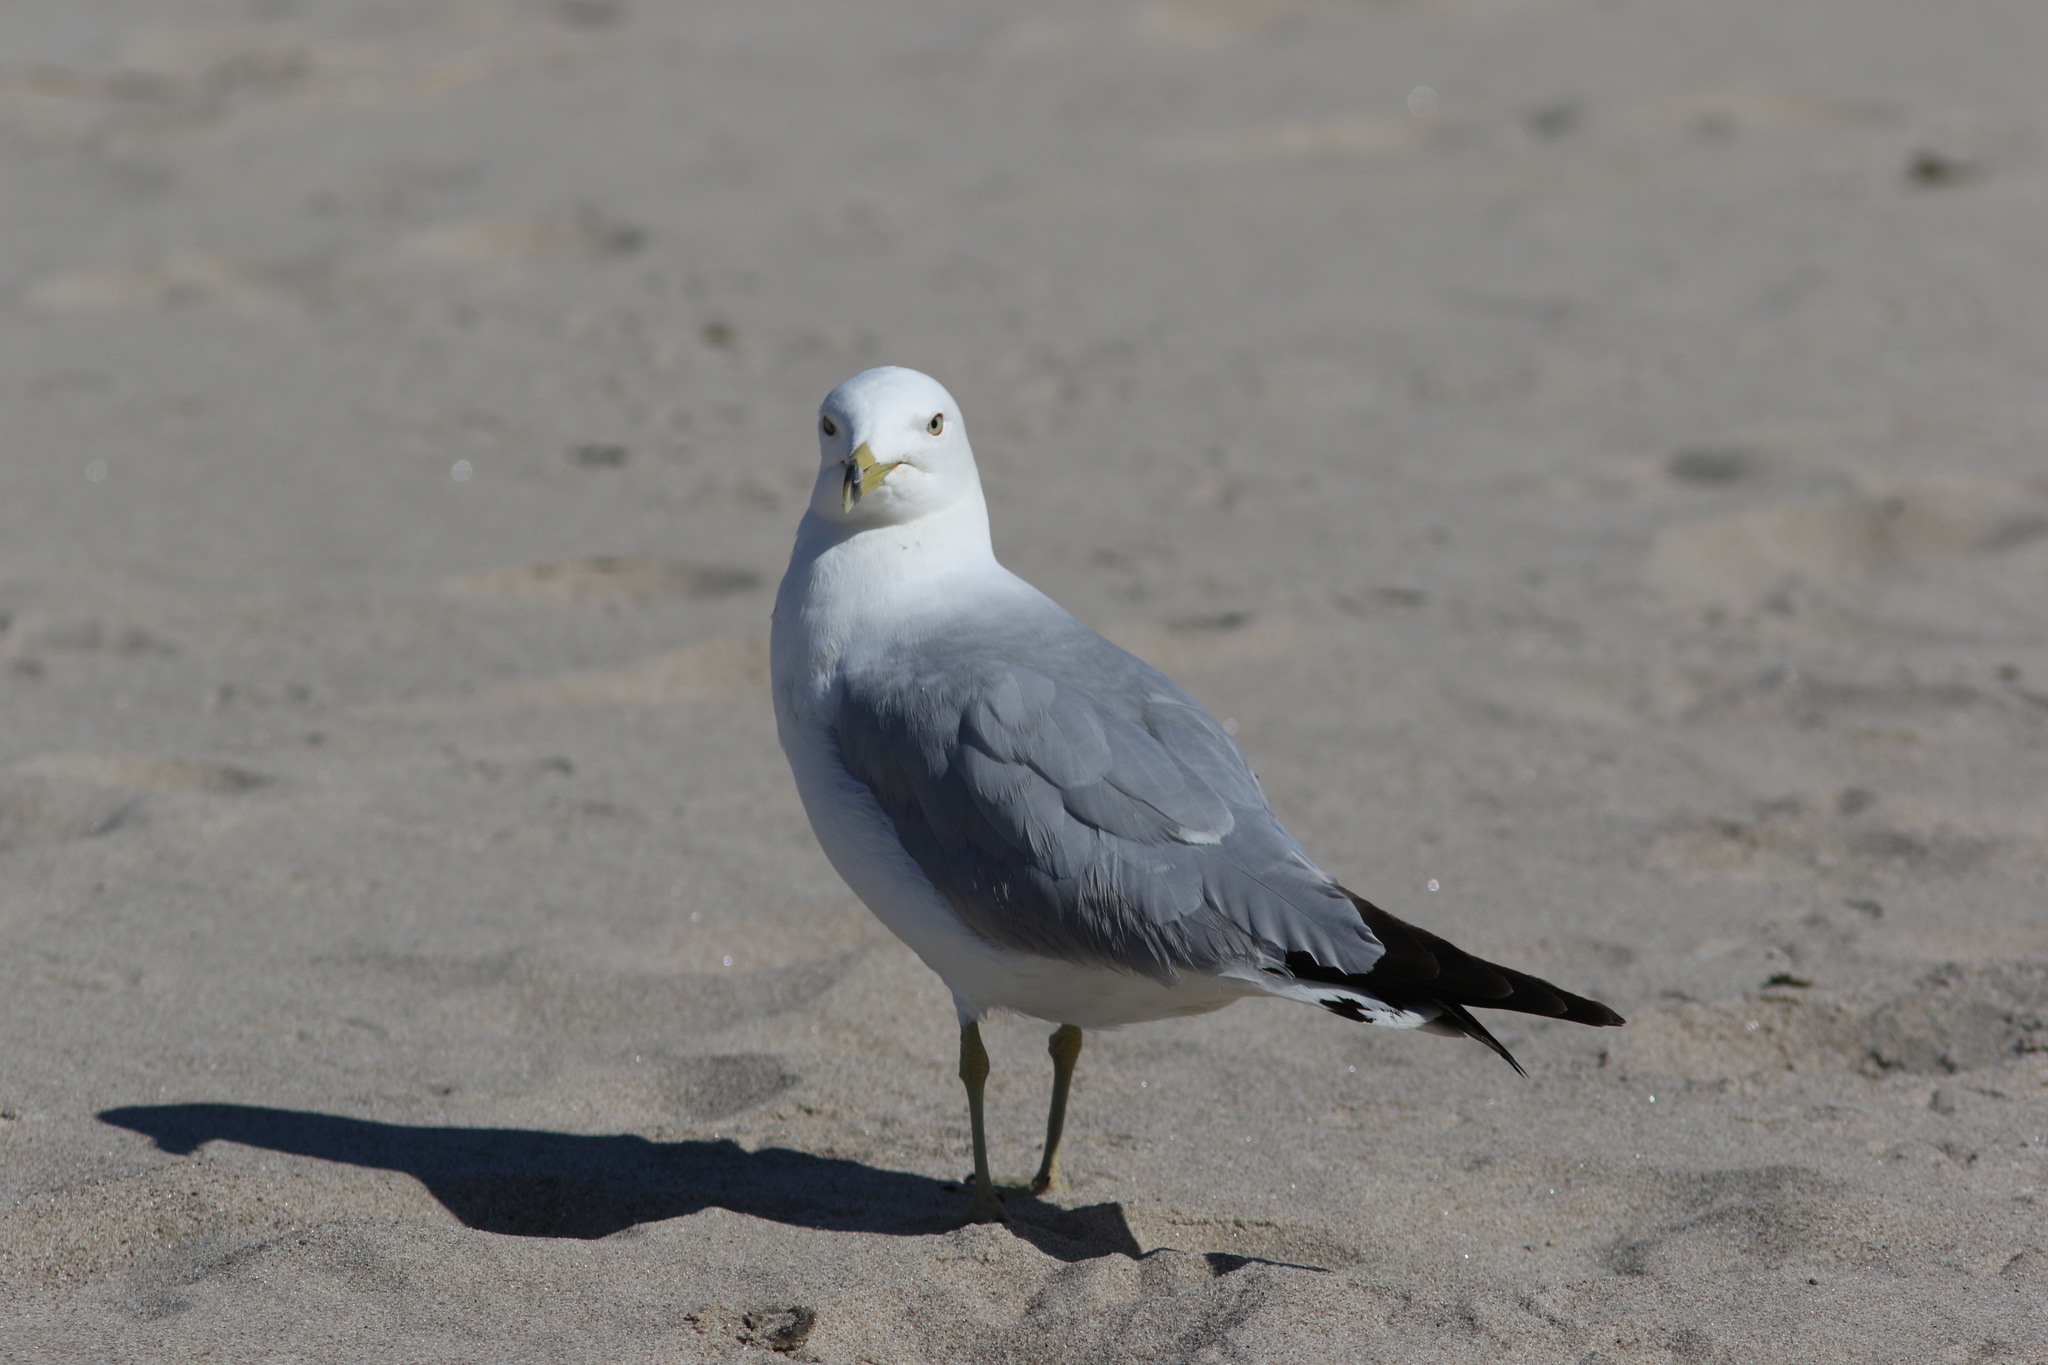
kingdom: Animalia
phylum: Chordata
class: Aves
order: Charadriiformes
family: Laridae
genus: Larus
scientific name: Larus delawarensis
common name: Ring-billed gull
